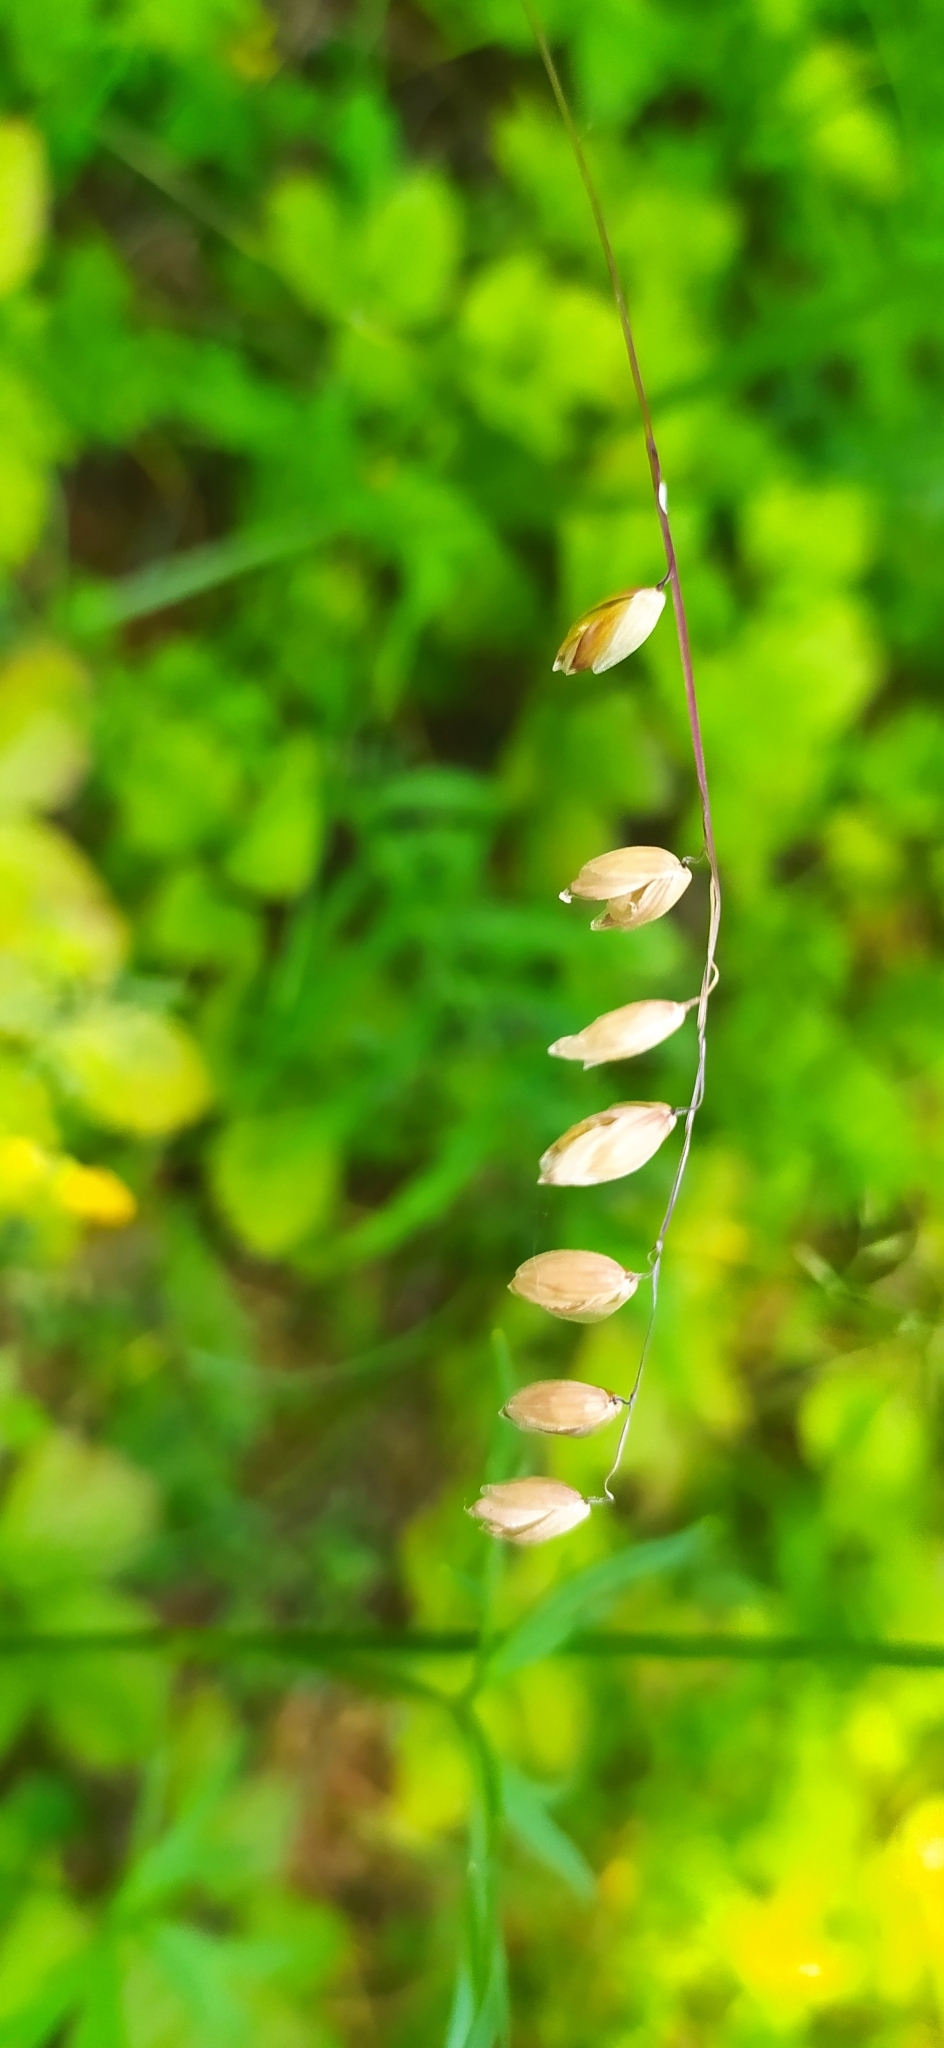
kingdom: Plantae
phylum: Tracheophyta
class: Liliopsida
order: Poales
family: Poaceae
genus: Melica
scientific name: Melica nutans
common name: Mountain melick
